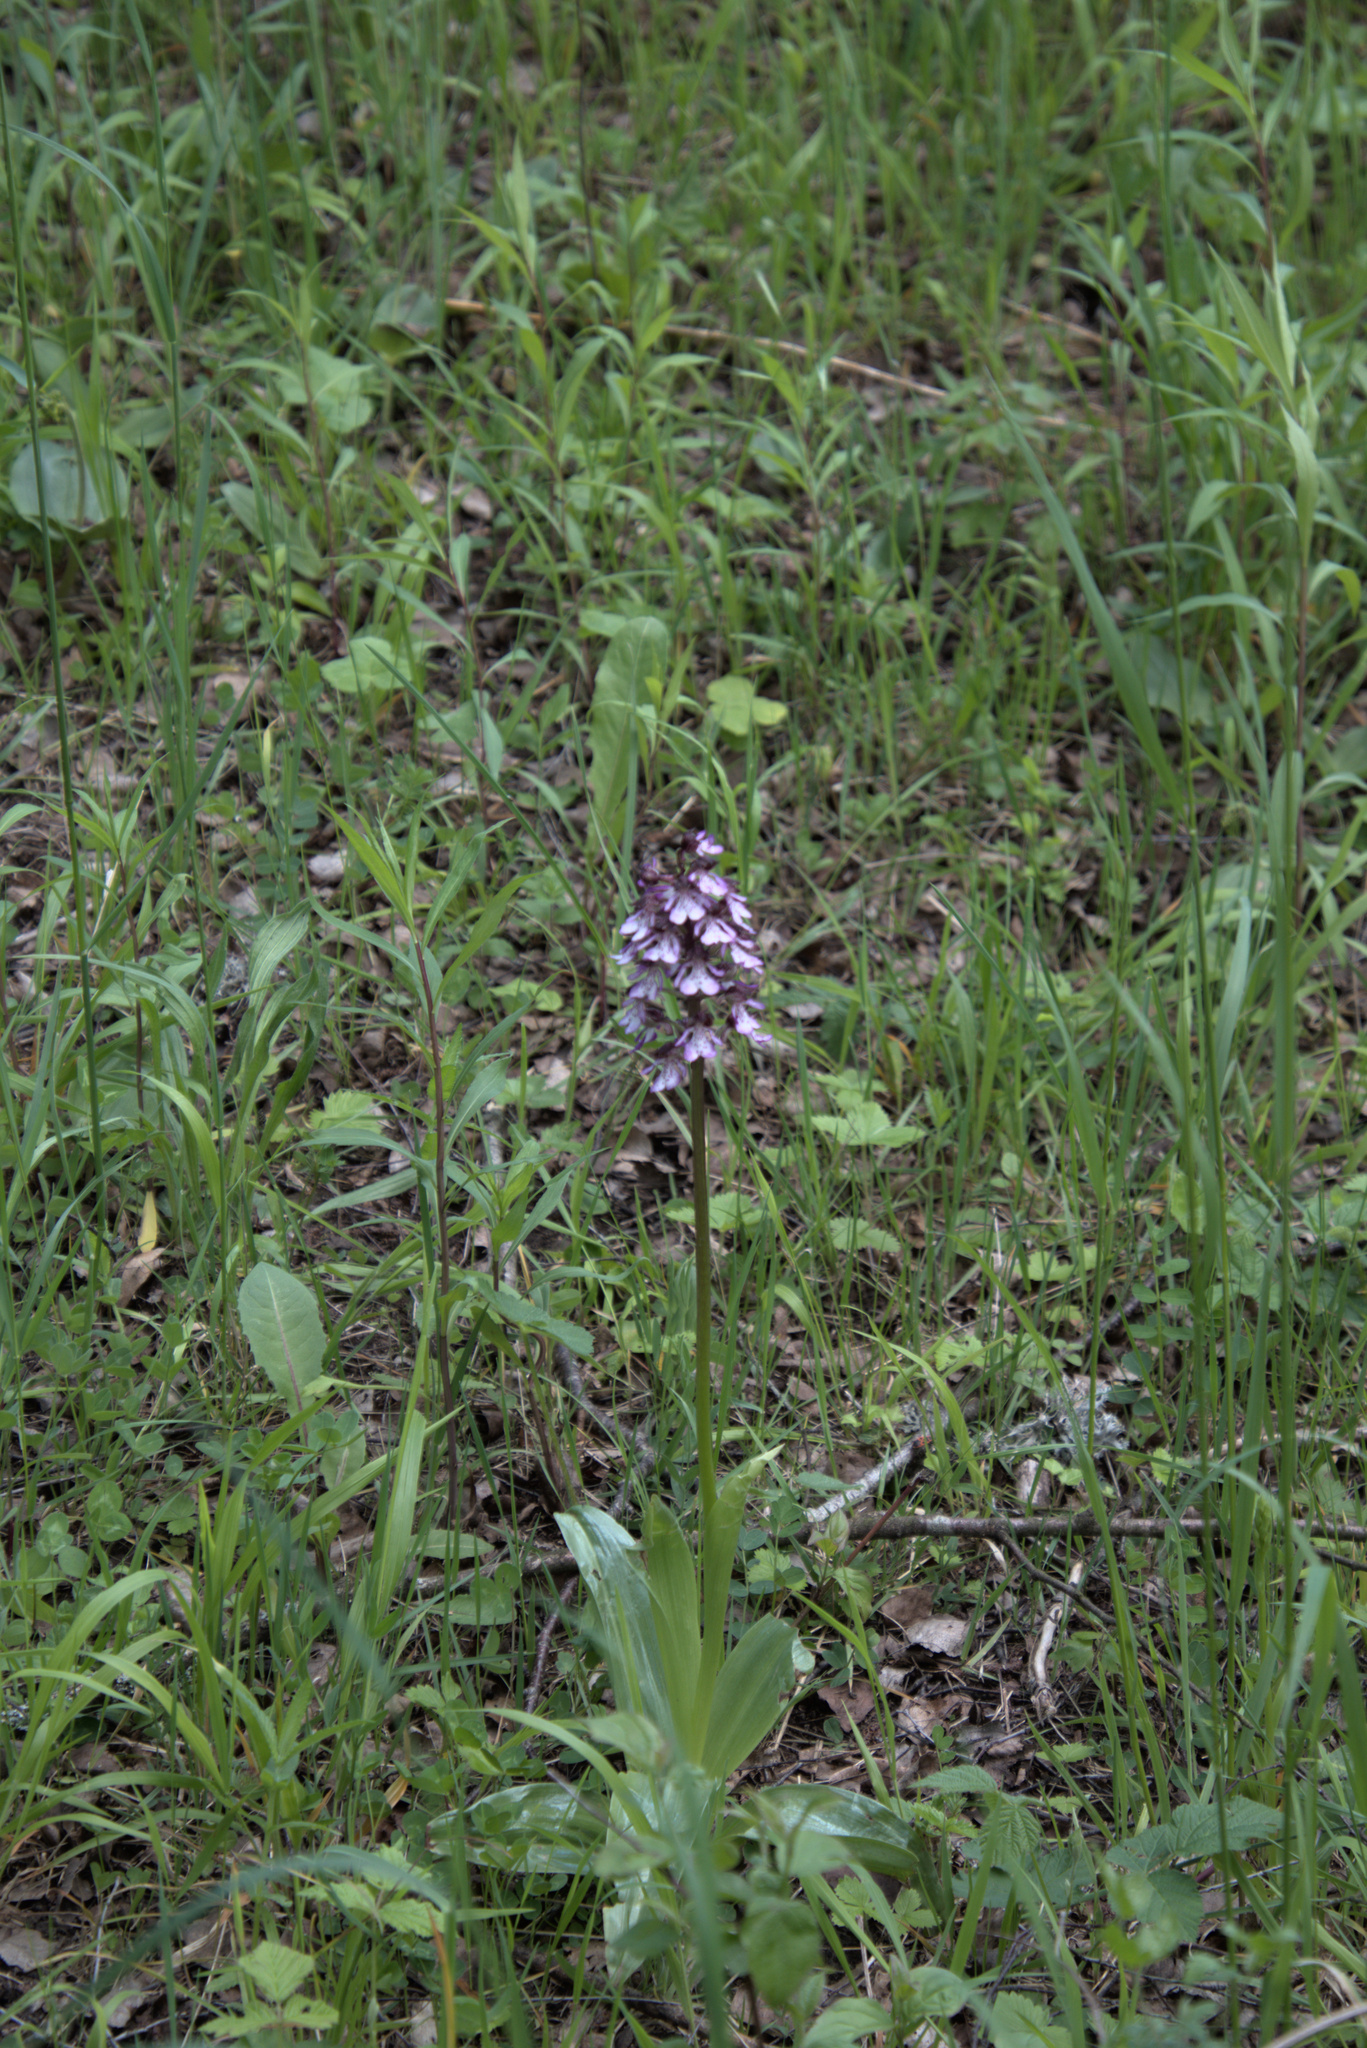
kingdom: Plantae
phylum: Tracheophyta
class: Liliopsida
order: Asparagales
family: Orchidaceae
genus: Orchis
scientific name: Orchis purpurea
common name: Lady orchid
